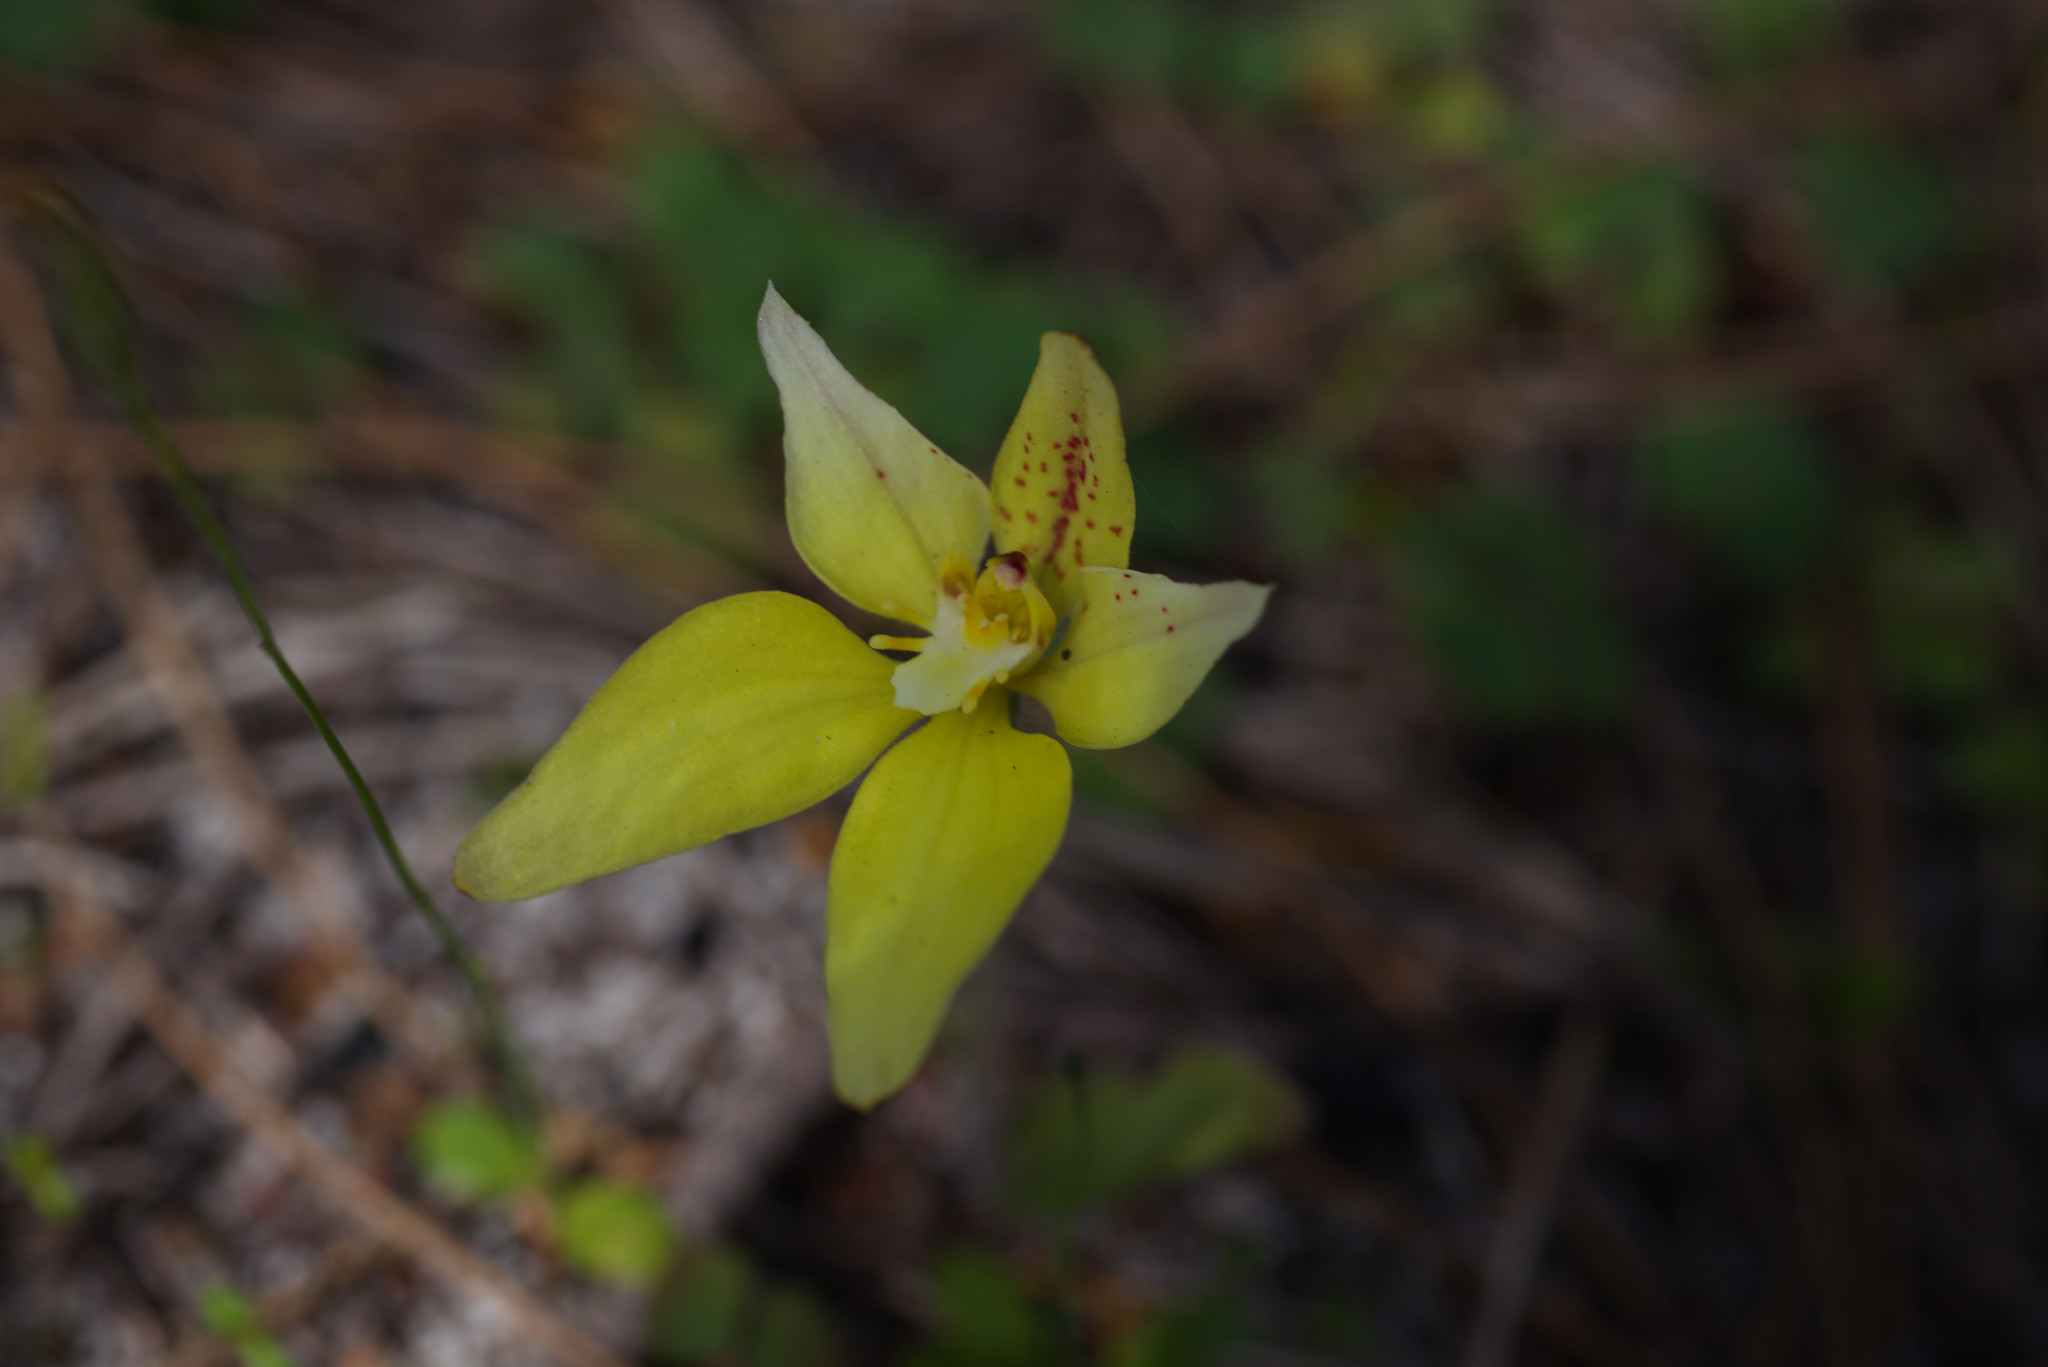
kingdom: Plantae
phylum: Tracheophyta
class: Liliopsida
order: Asparagales
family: Orchidaceae
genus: Caladenia
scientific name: Caladenia flava
